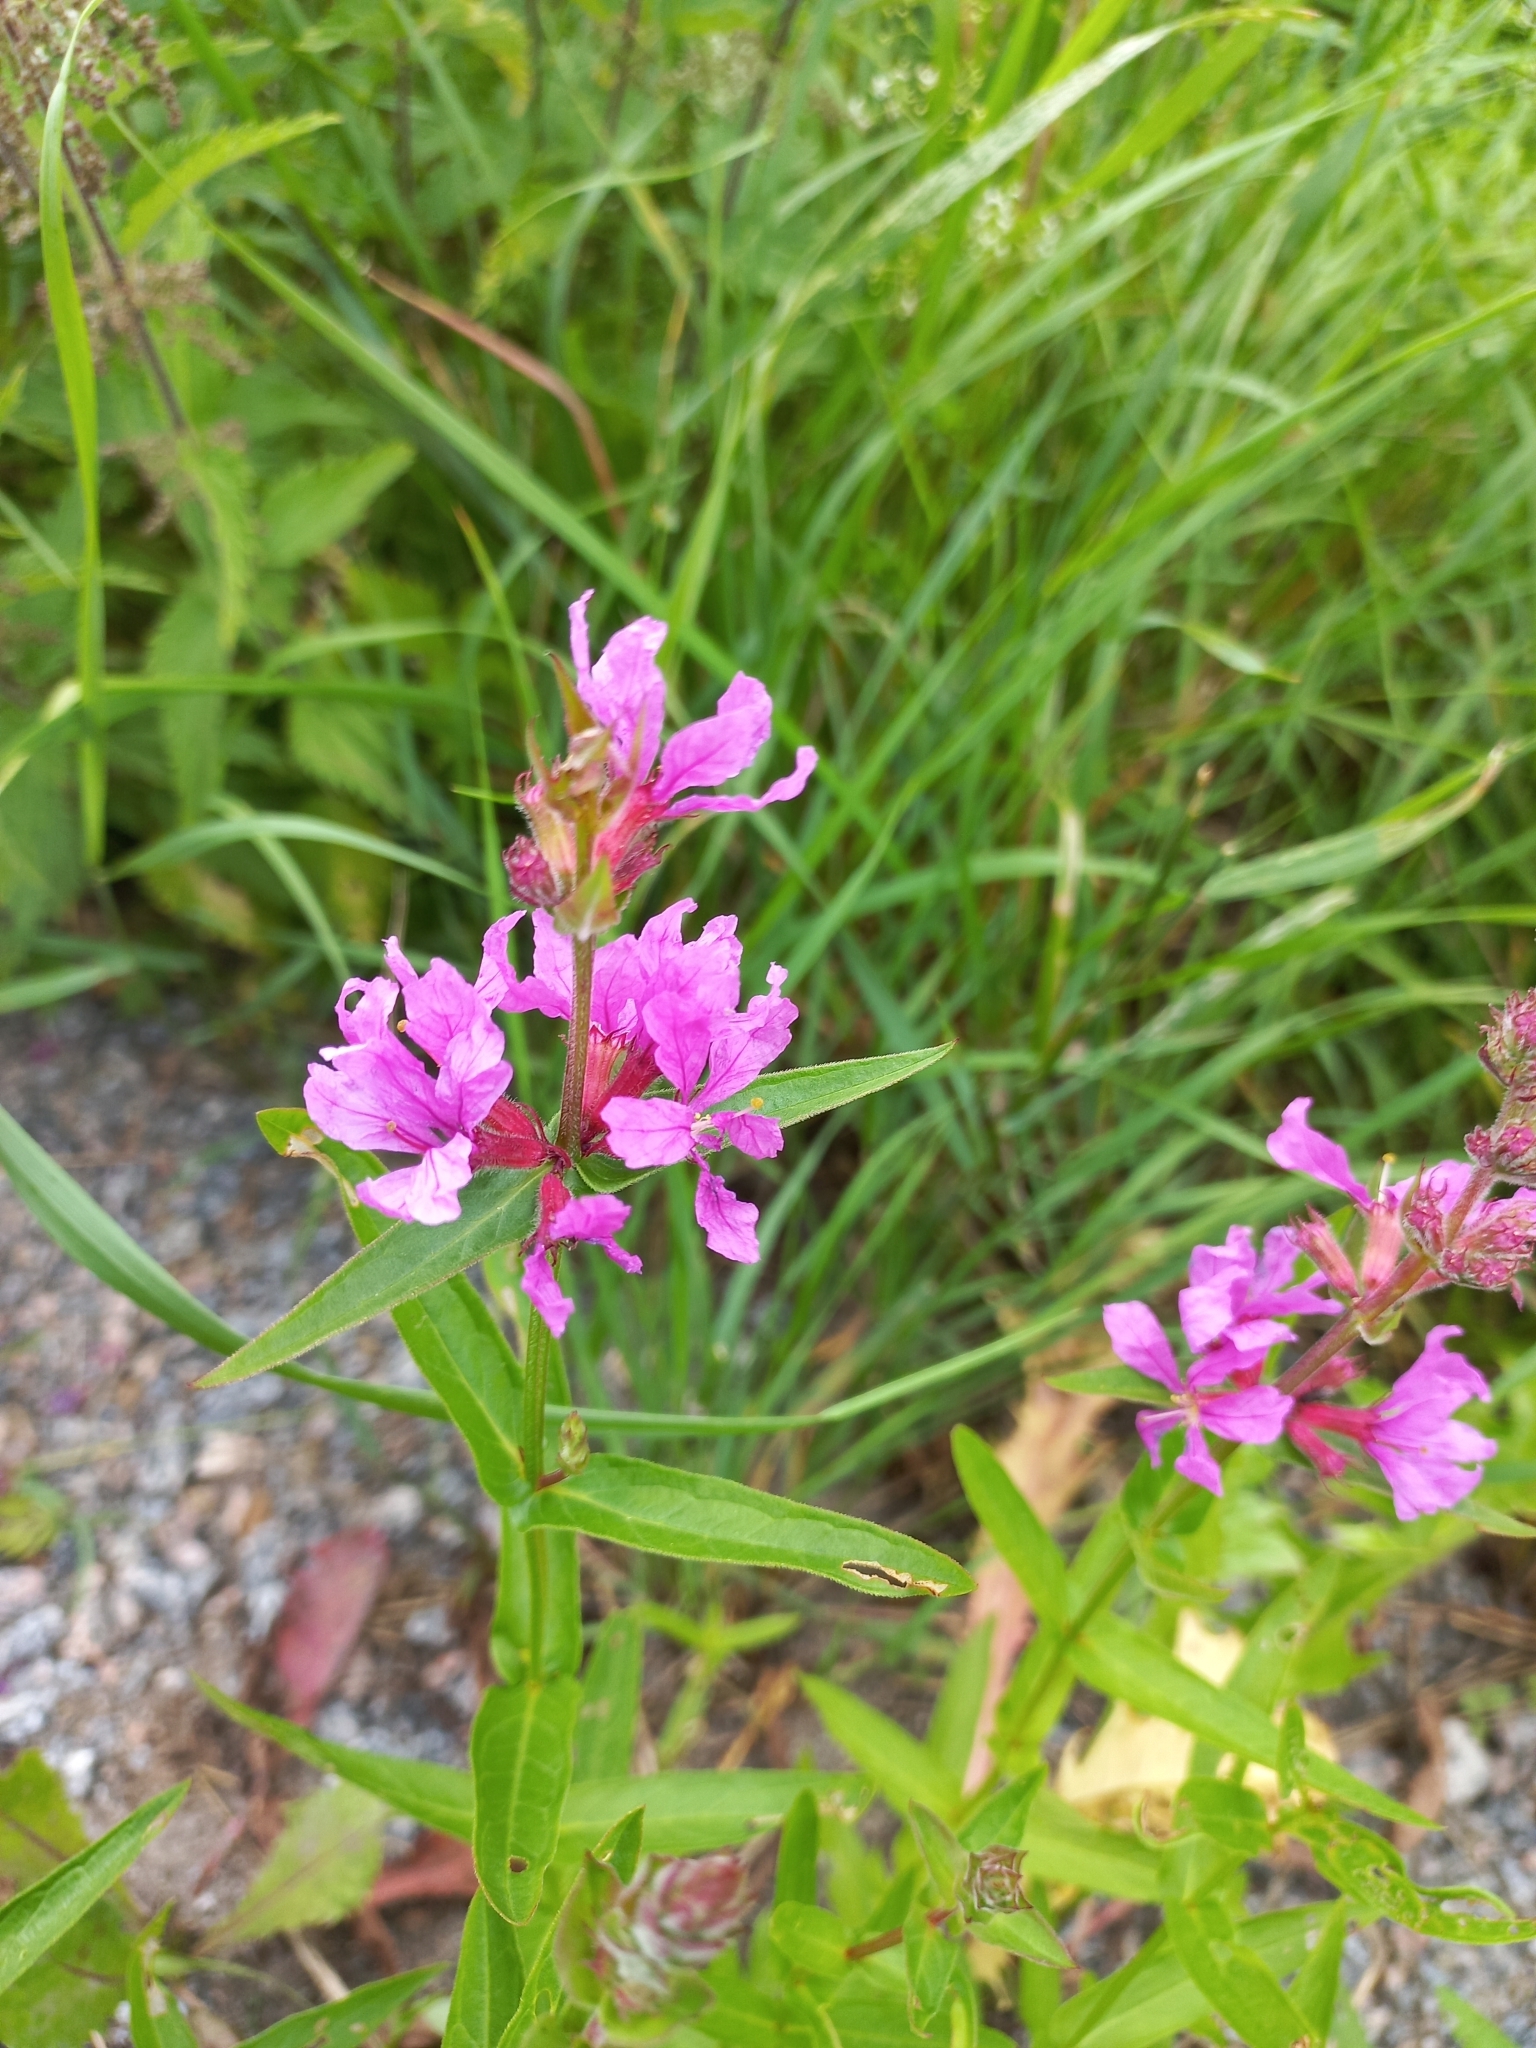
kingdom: Plantae
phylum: Tracheophyta
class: Magnoliopsida
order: Myrtales
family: Lythraceae
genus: Lythrum
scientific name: Lythrum salicaria
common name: Purple loosestrife
